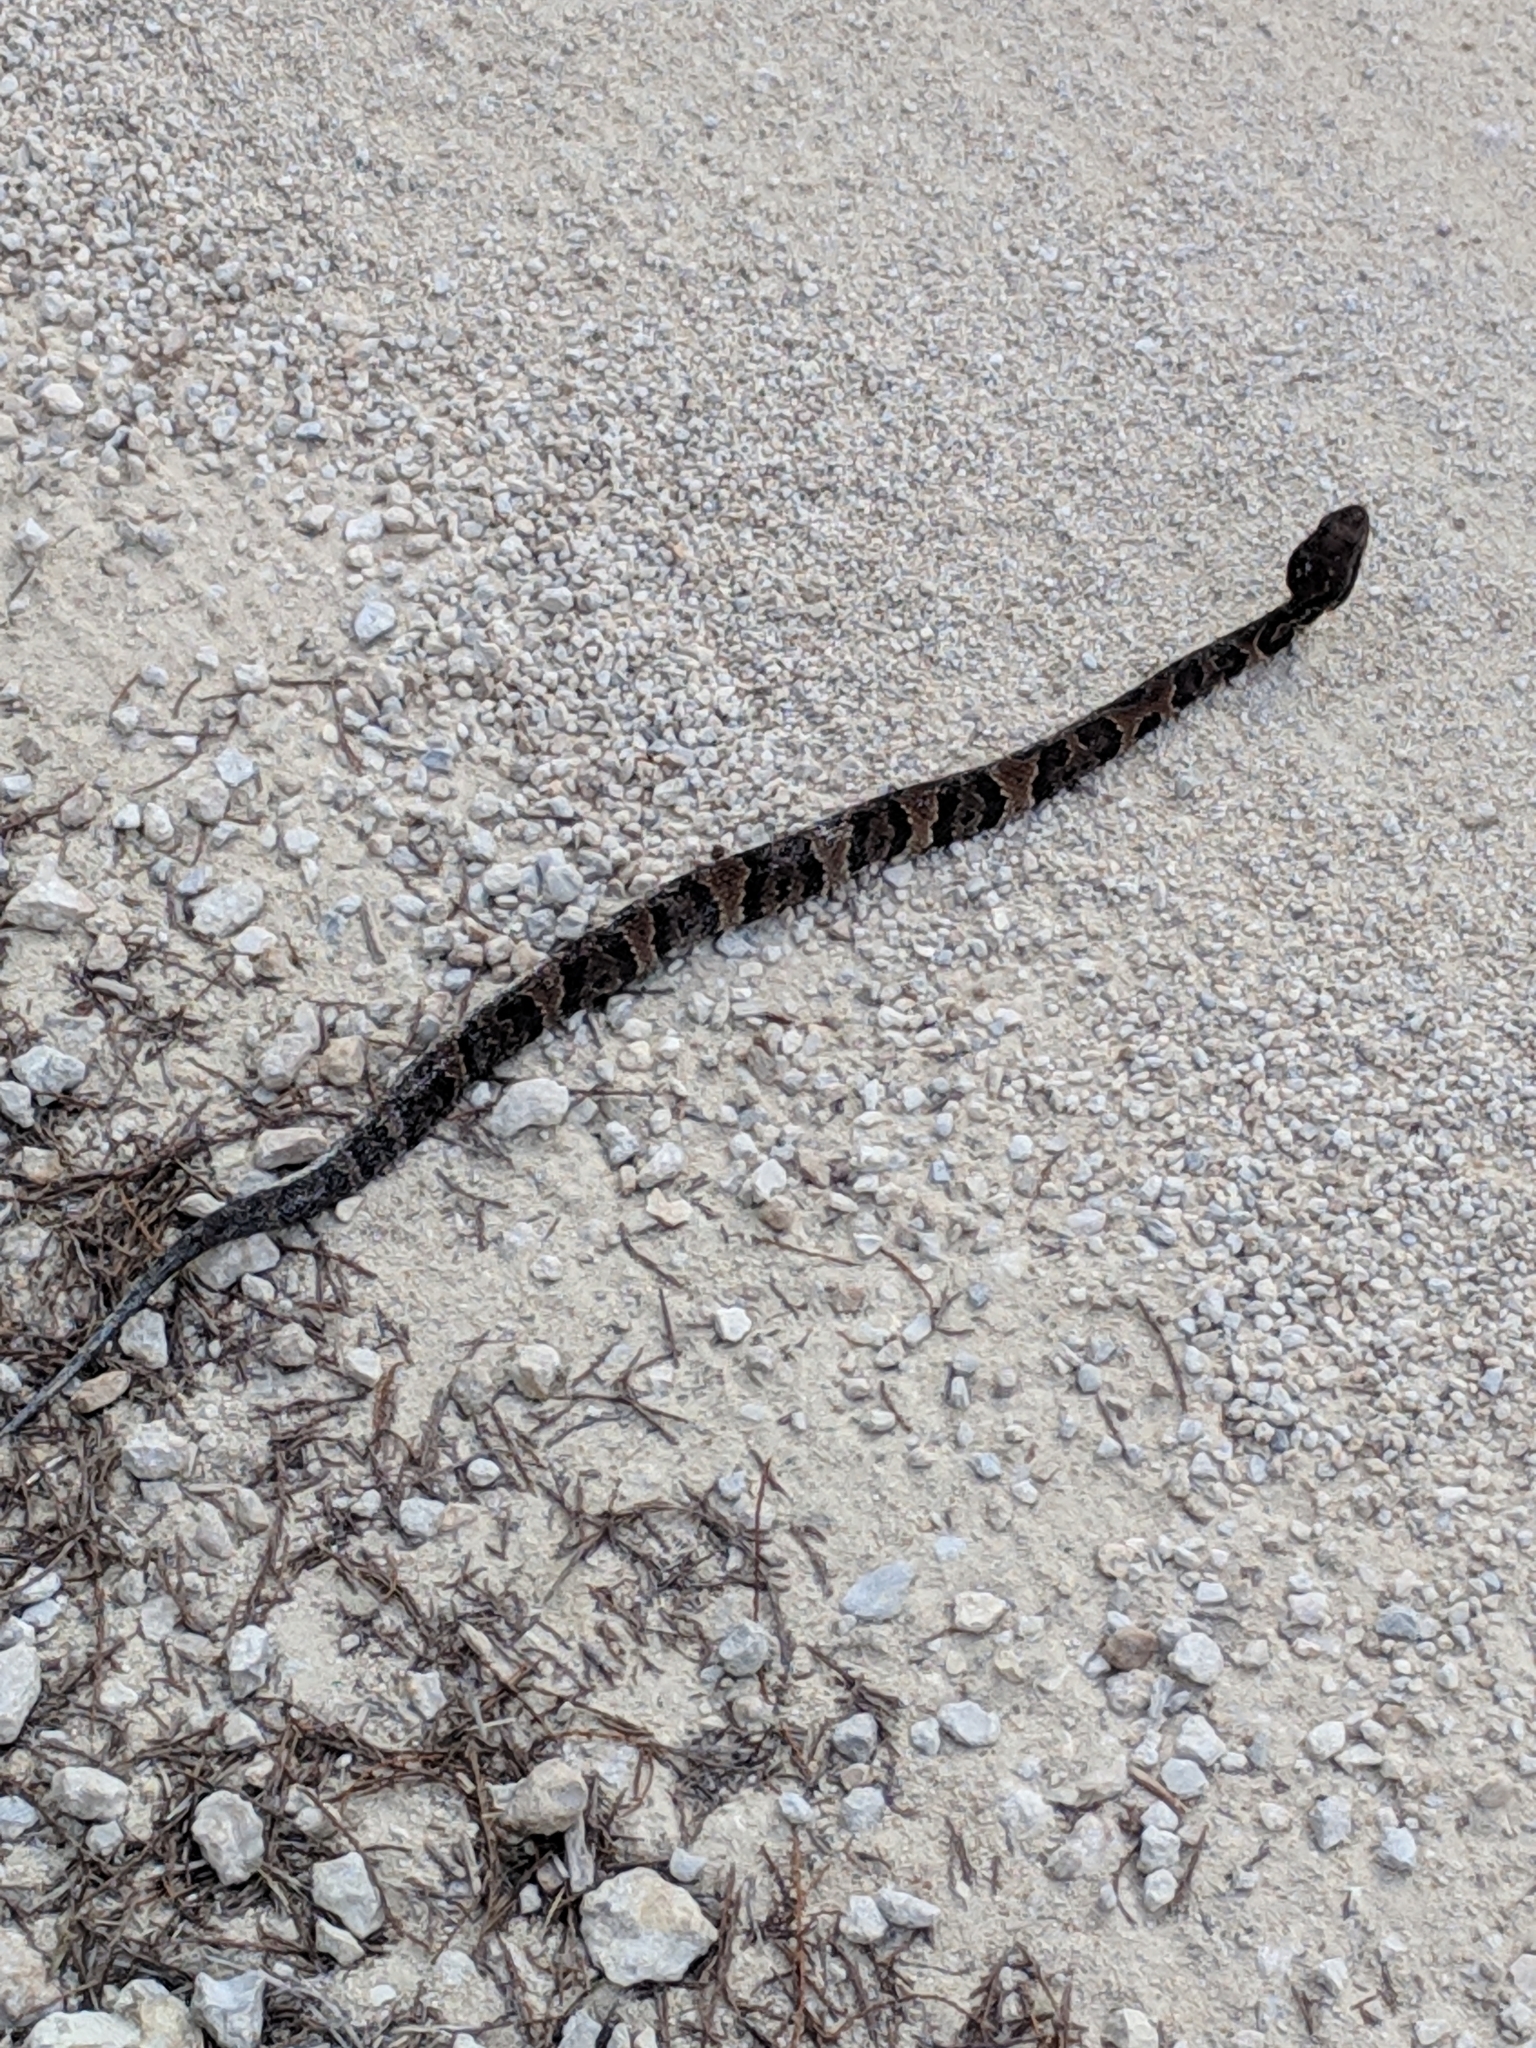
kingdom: Animalia
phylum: Chordata
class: Squamata
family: Viperidae
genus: Agkistrodon
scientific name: Agkistrodon conanti
